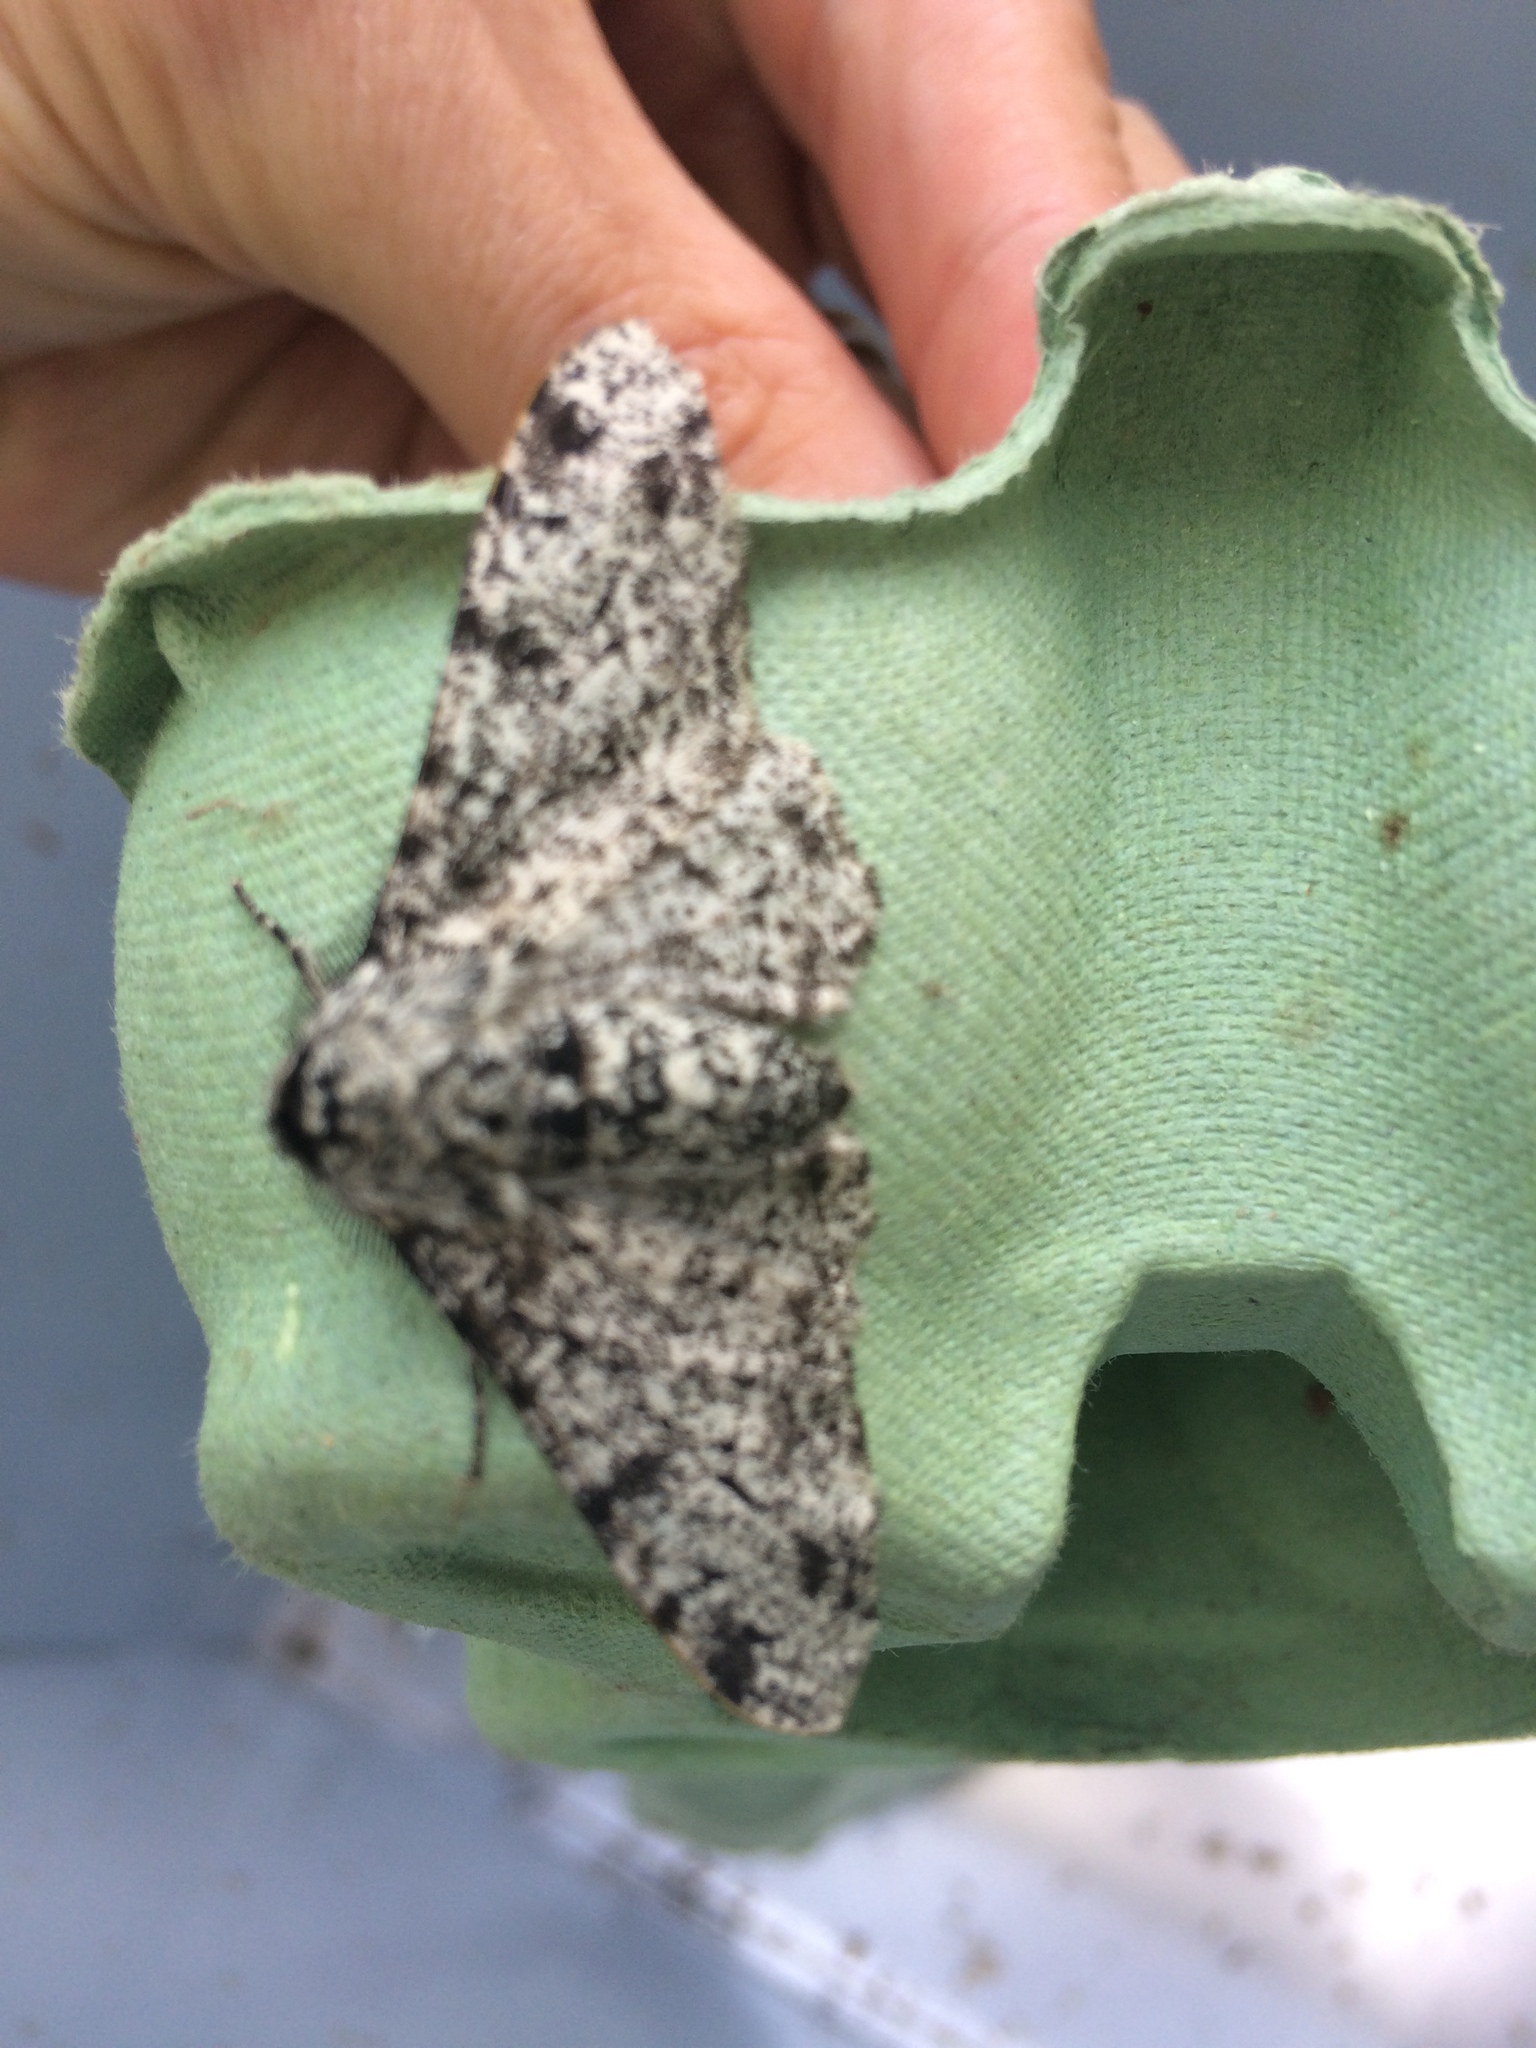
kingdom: Animalia
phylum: Arthropoda
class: Insecta
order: Lepidoptera
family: Geometridae
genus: Biston
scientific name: Biston betularia
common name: Peppered moth
